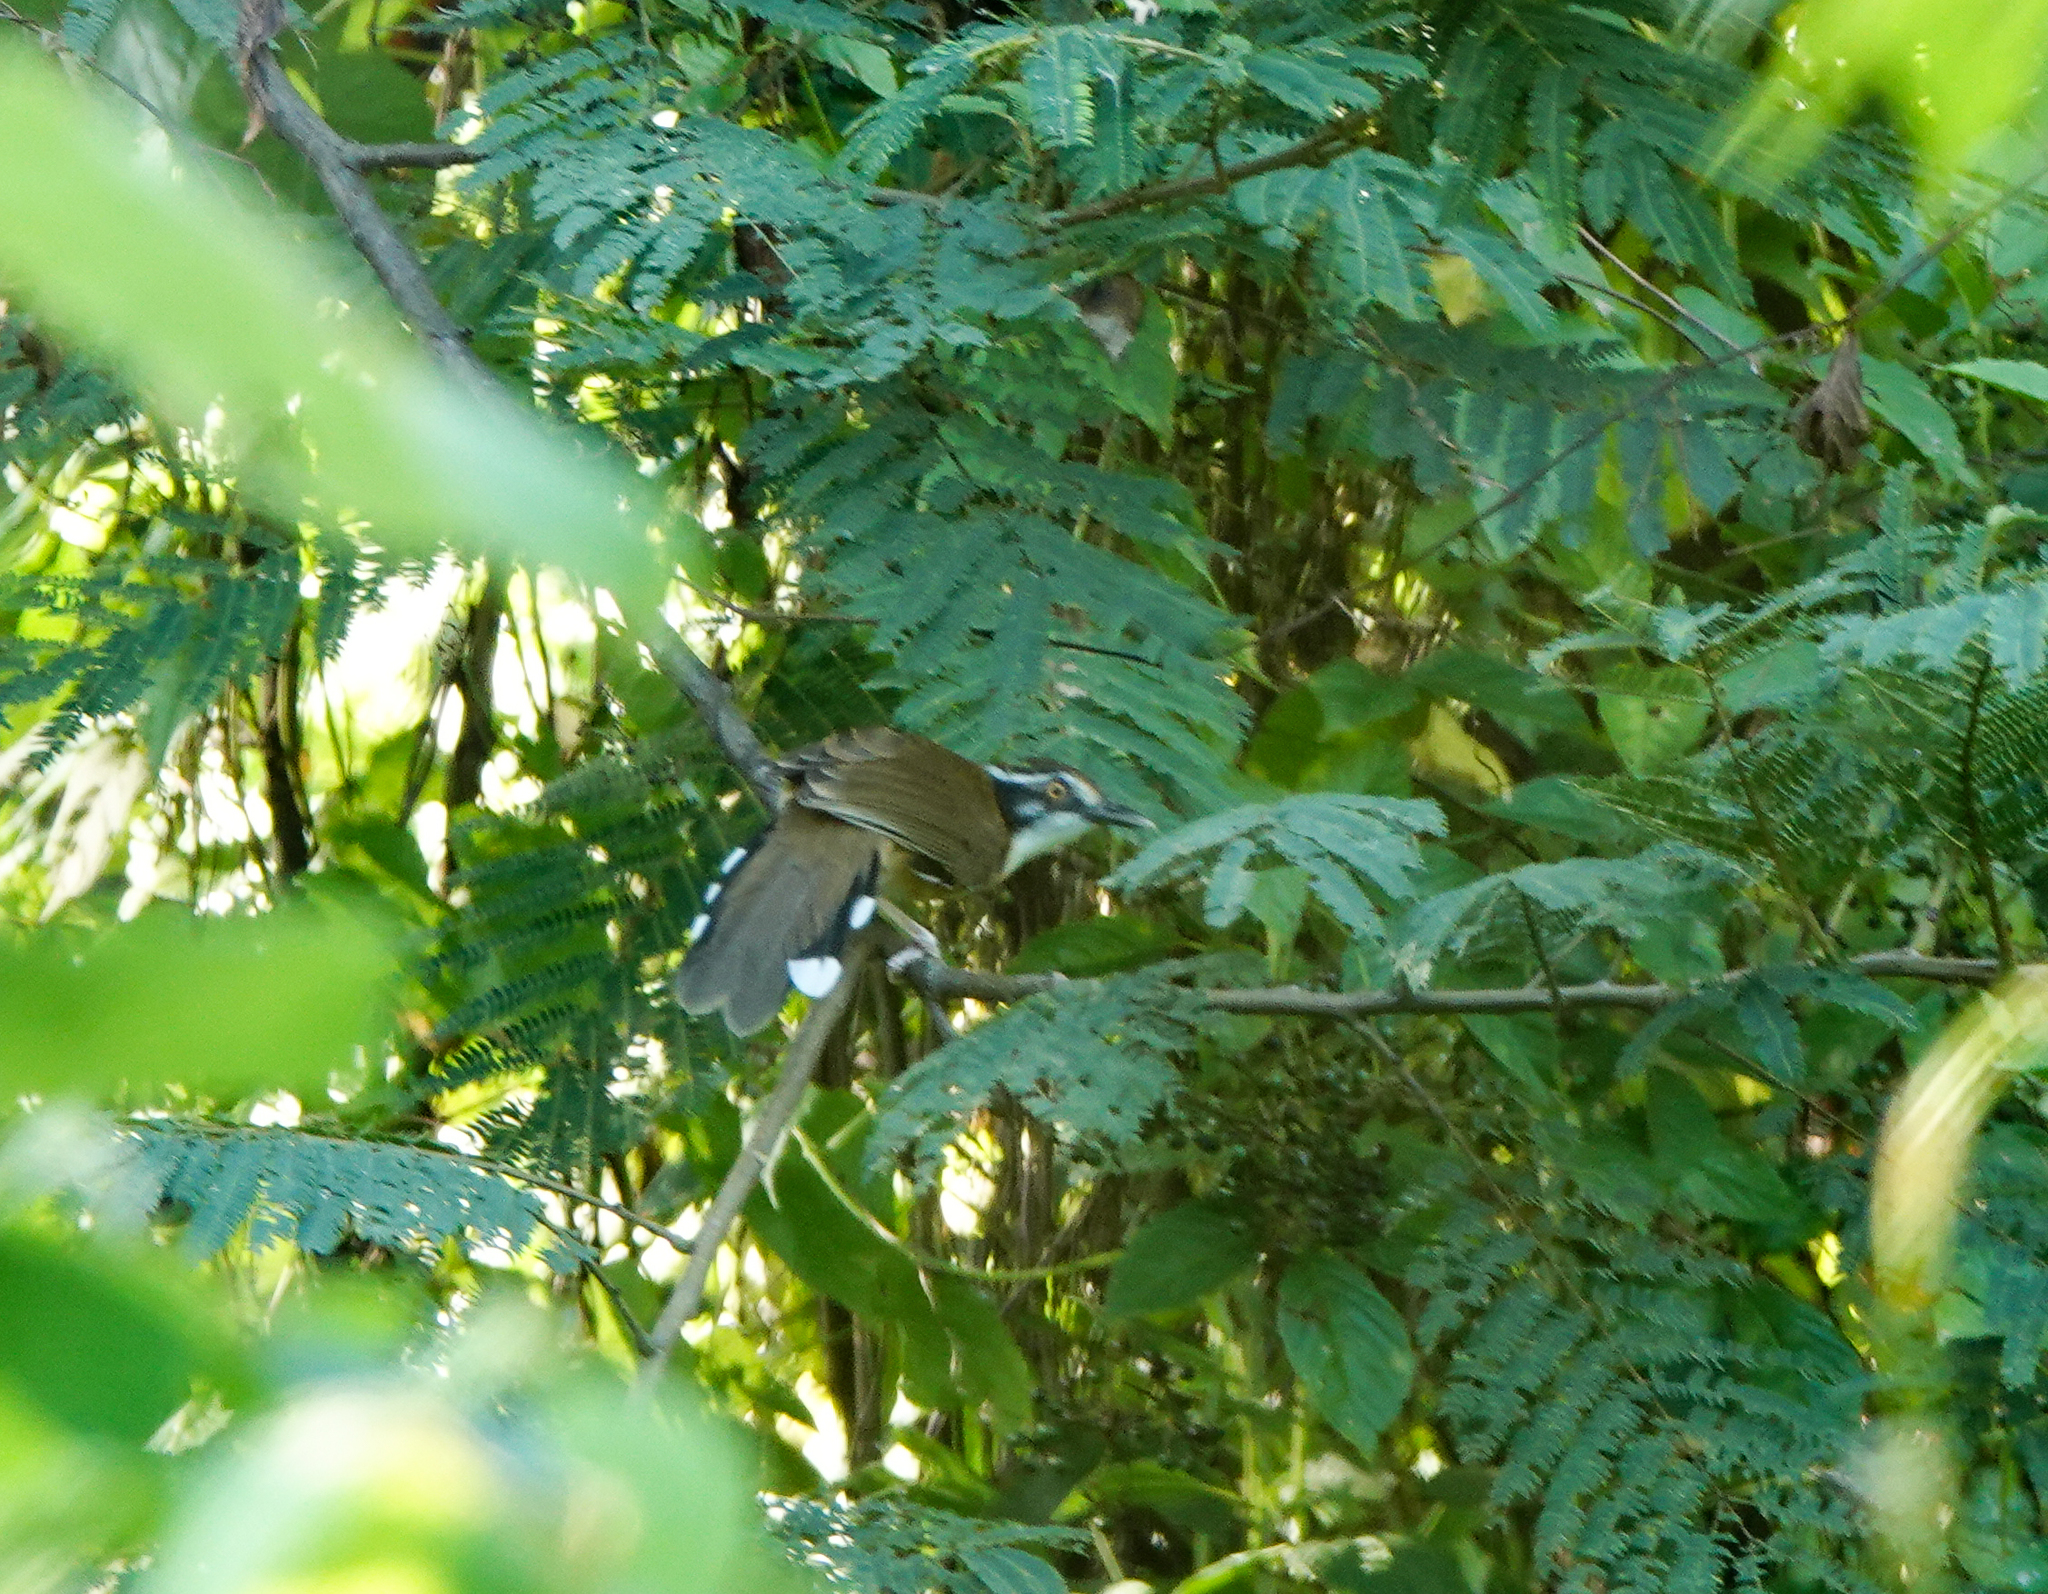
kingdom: Animalia
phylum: Chordata
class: Aves
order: Passeriformes
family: Leiothrichidae
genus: Garrulax
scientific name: Garrulax monileger
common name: Lesser necklaced laughingthrush
